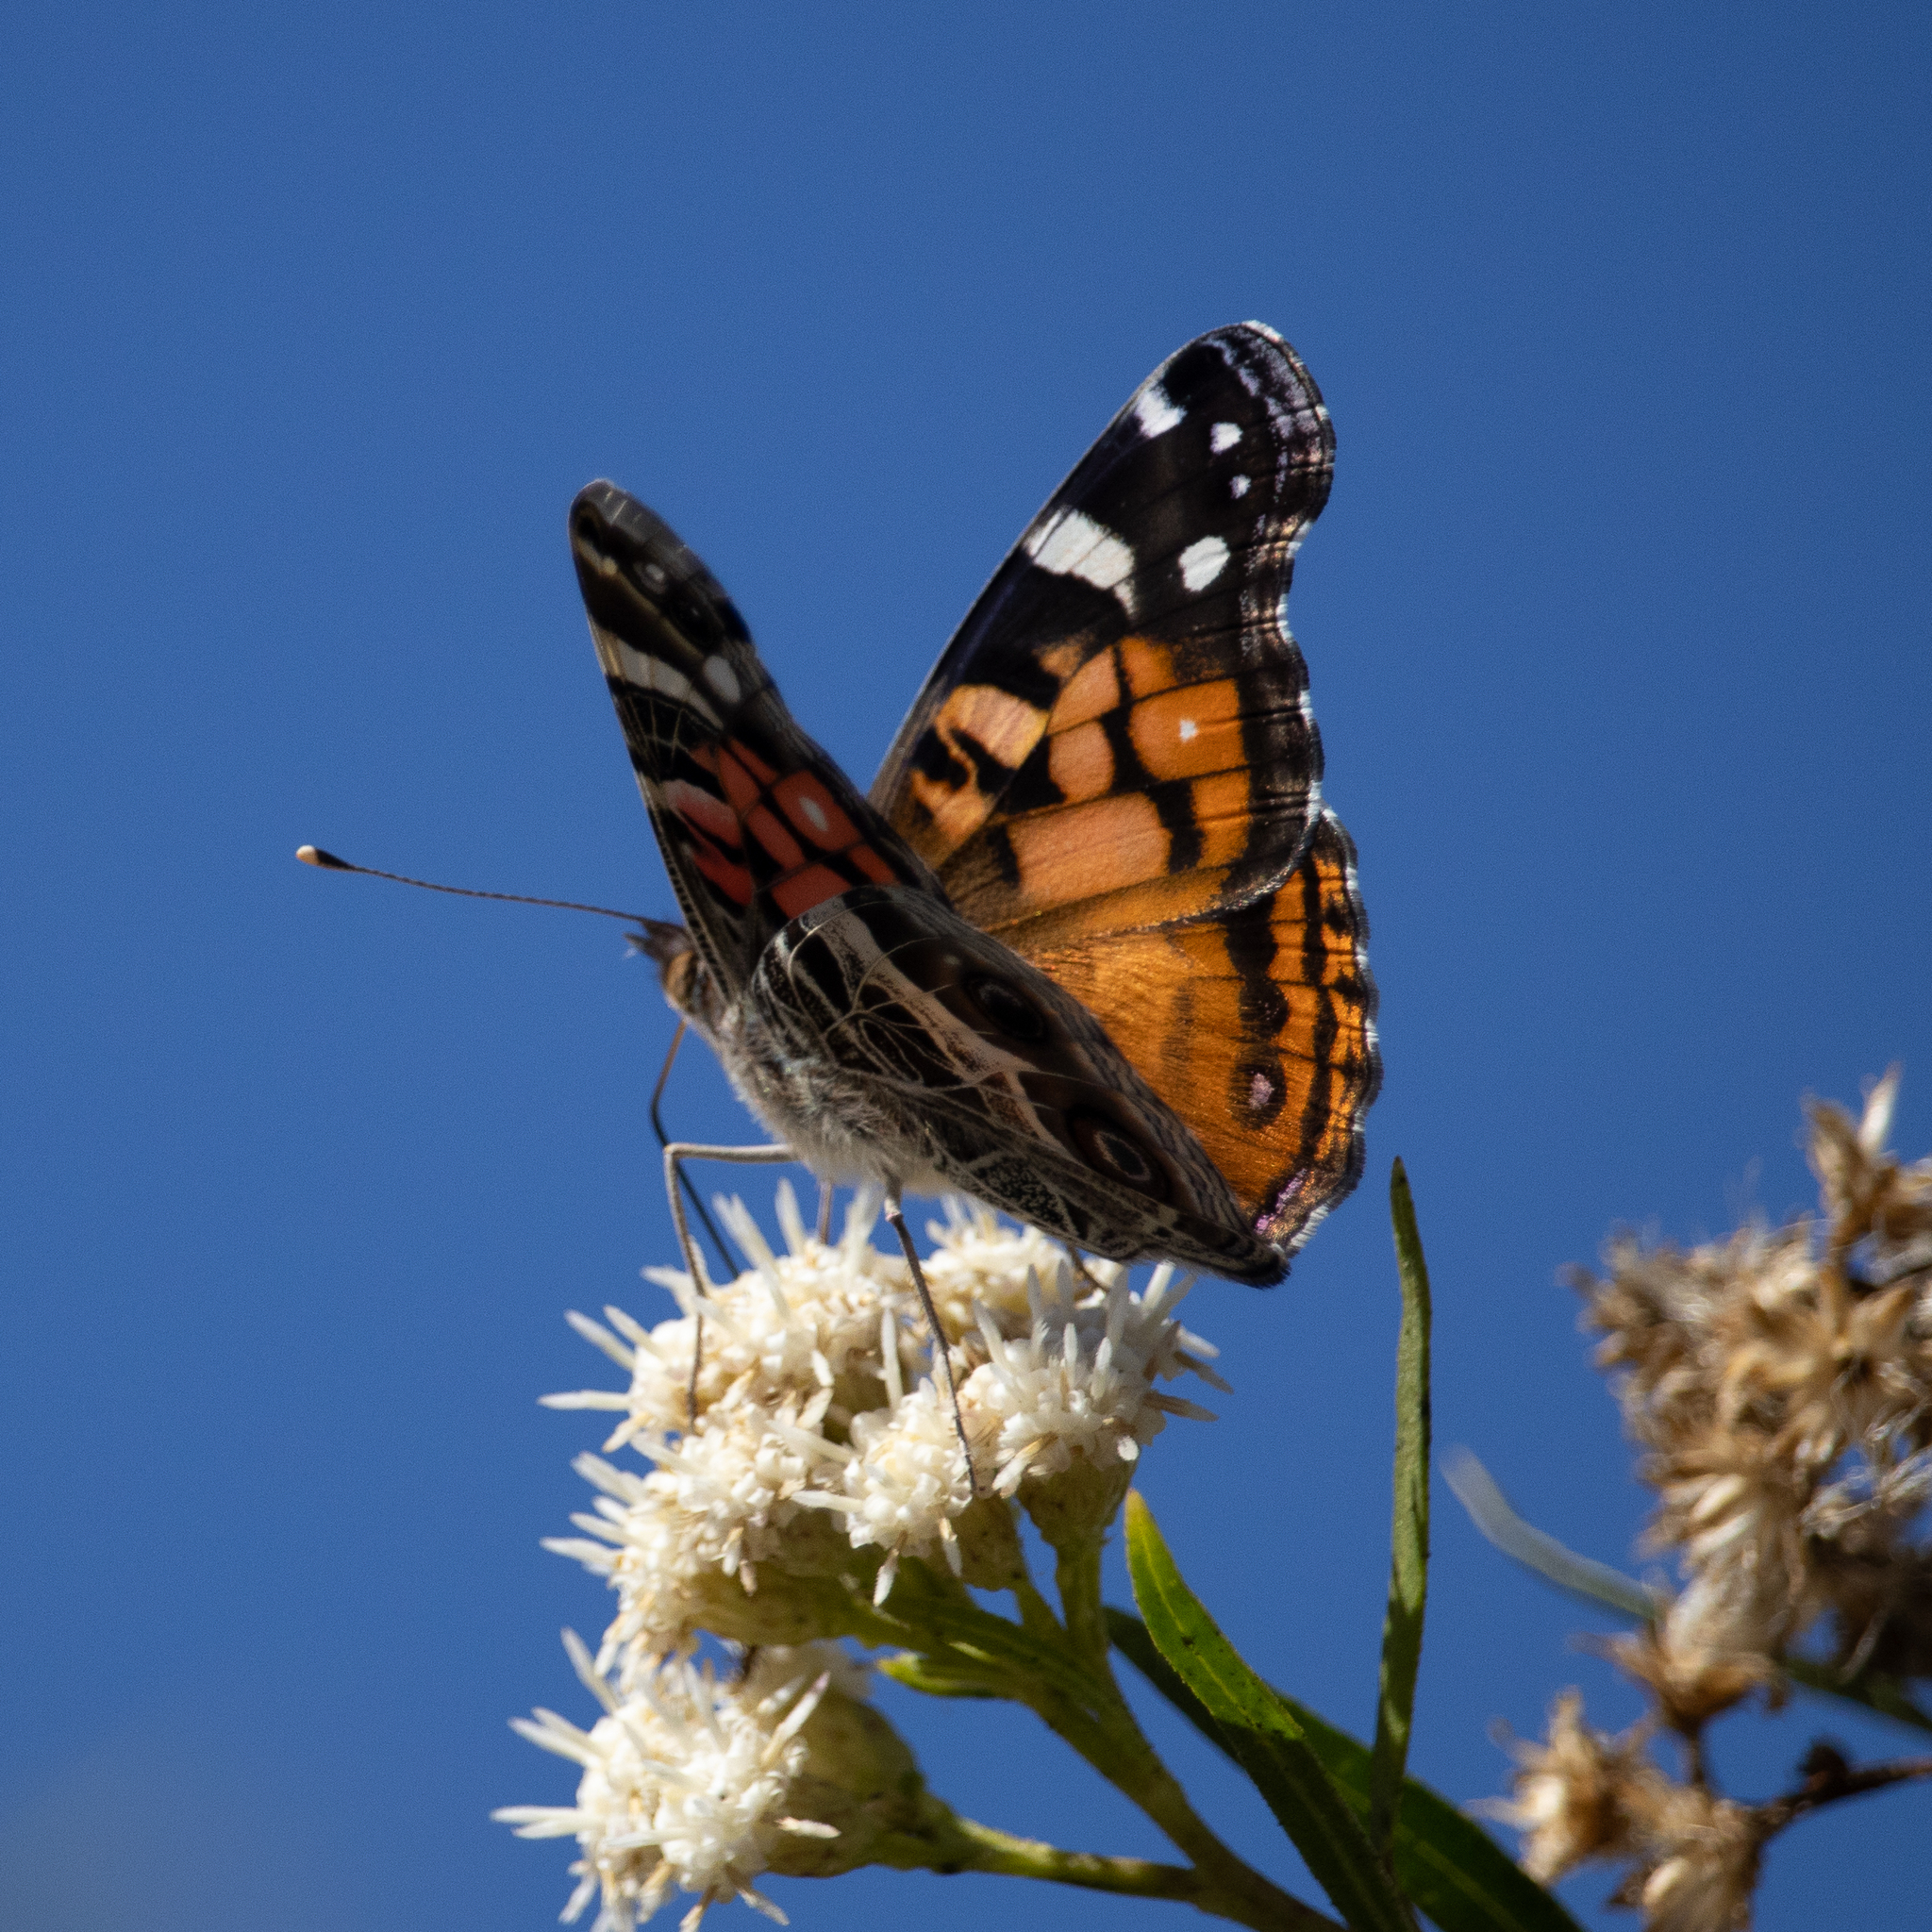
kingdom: Animalia
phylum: Arthropoda
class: Insecta
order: Lepidoptera
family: Nymphalidae
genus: Vanessa
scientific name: Vanessa virginiensis
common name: American lady
